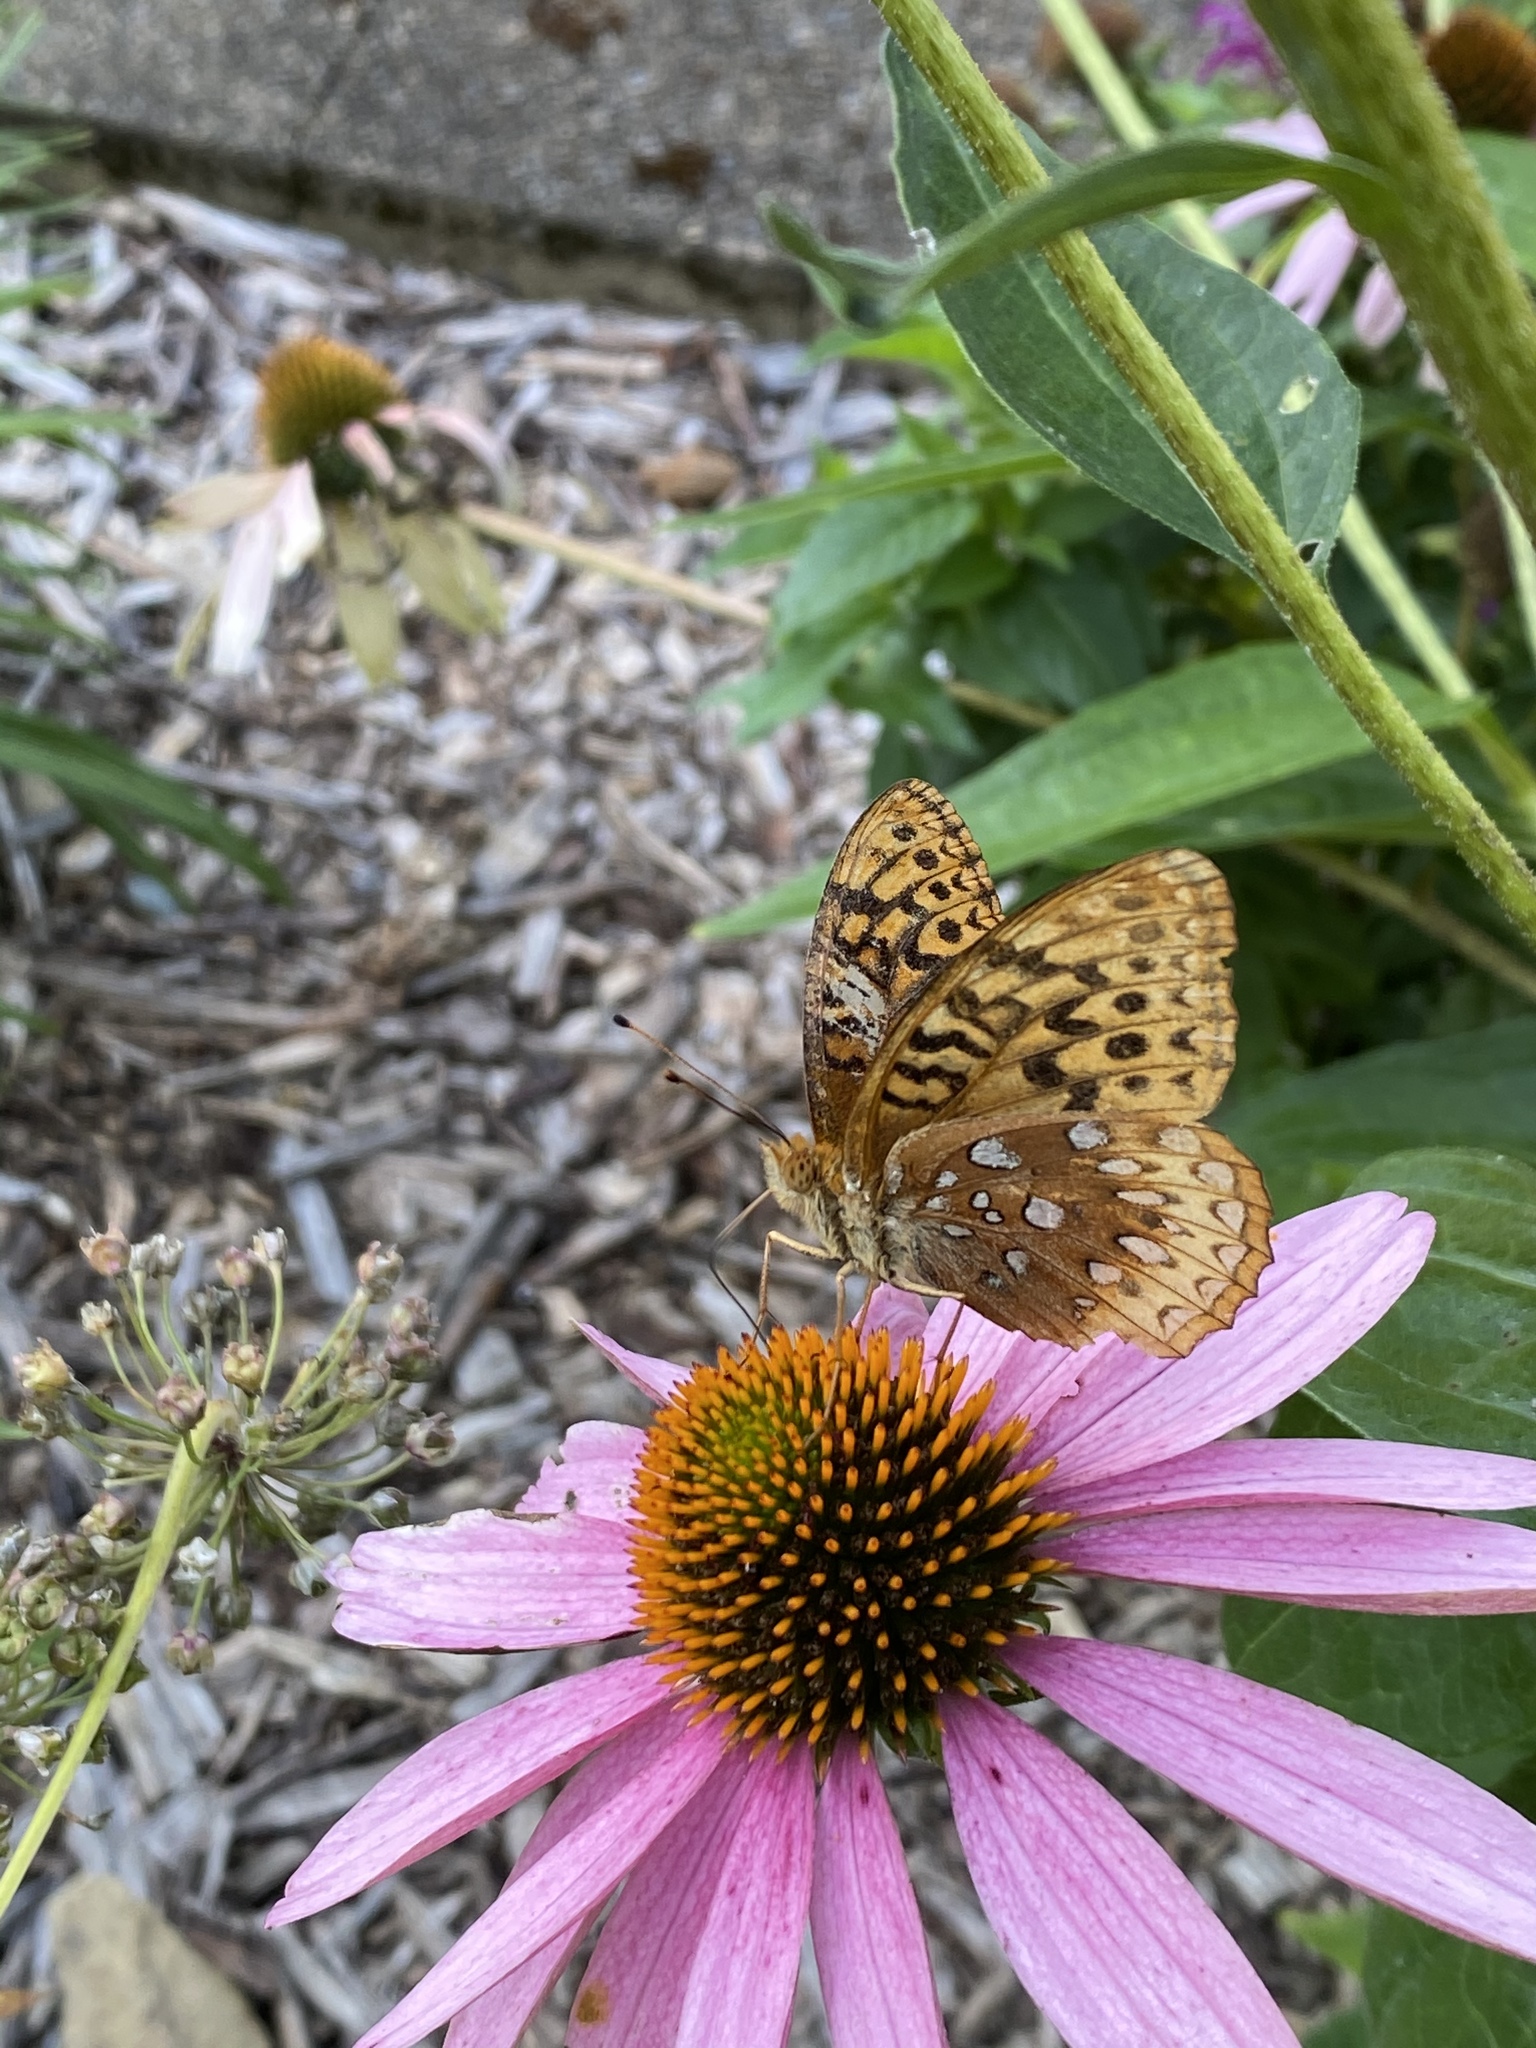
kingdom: Animalia
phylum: Arthropoda
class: Insecta
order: Lepidoptera
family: Nymphalidae
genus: Speyeria
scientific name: Speyeria cybele
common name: Great spangled fritillary
